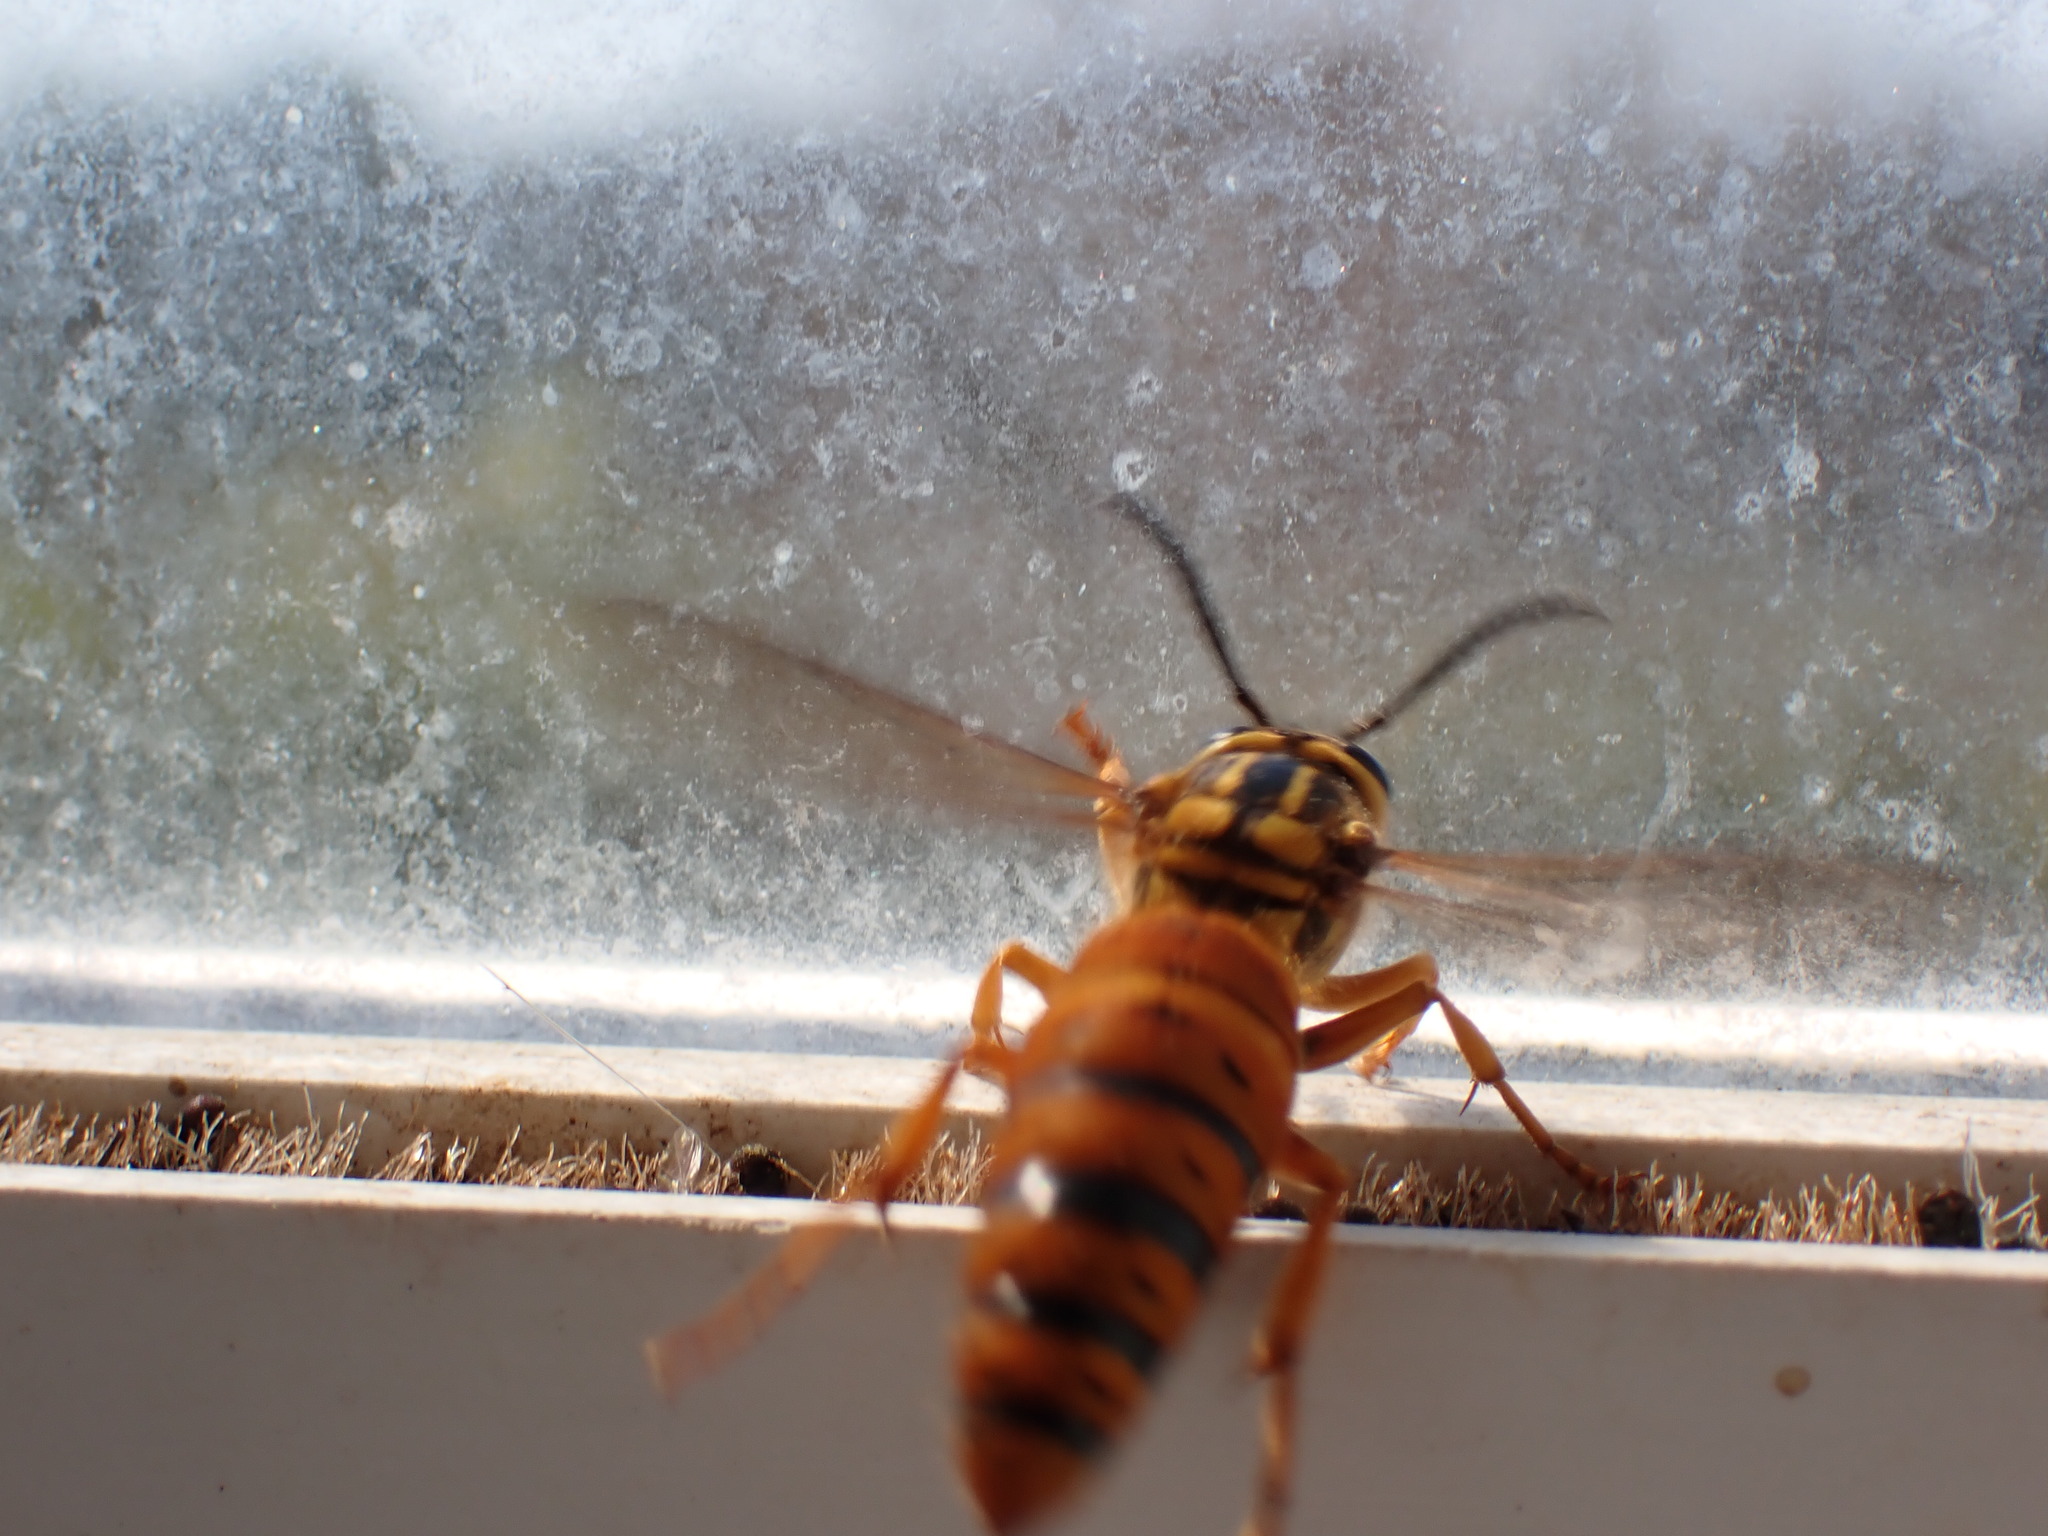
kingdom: Animalia
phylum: Arthropoda
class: Insecta
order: Hymenoptera
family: Vespidae
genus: Vespula
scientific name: Vespula squamosa
